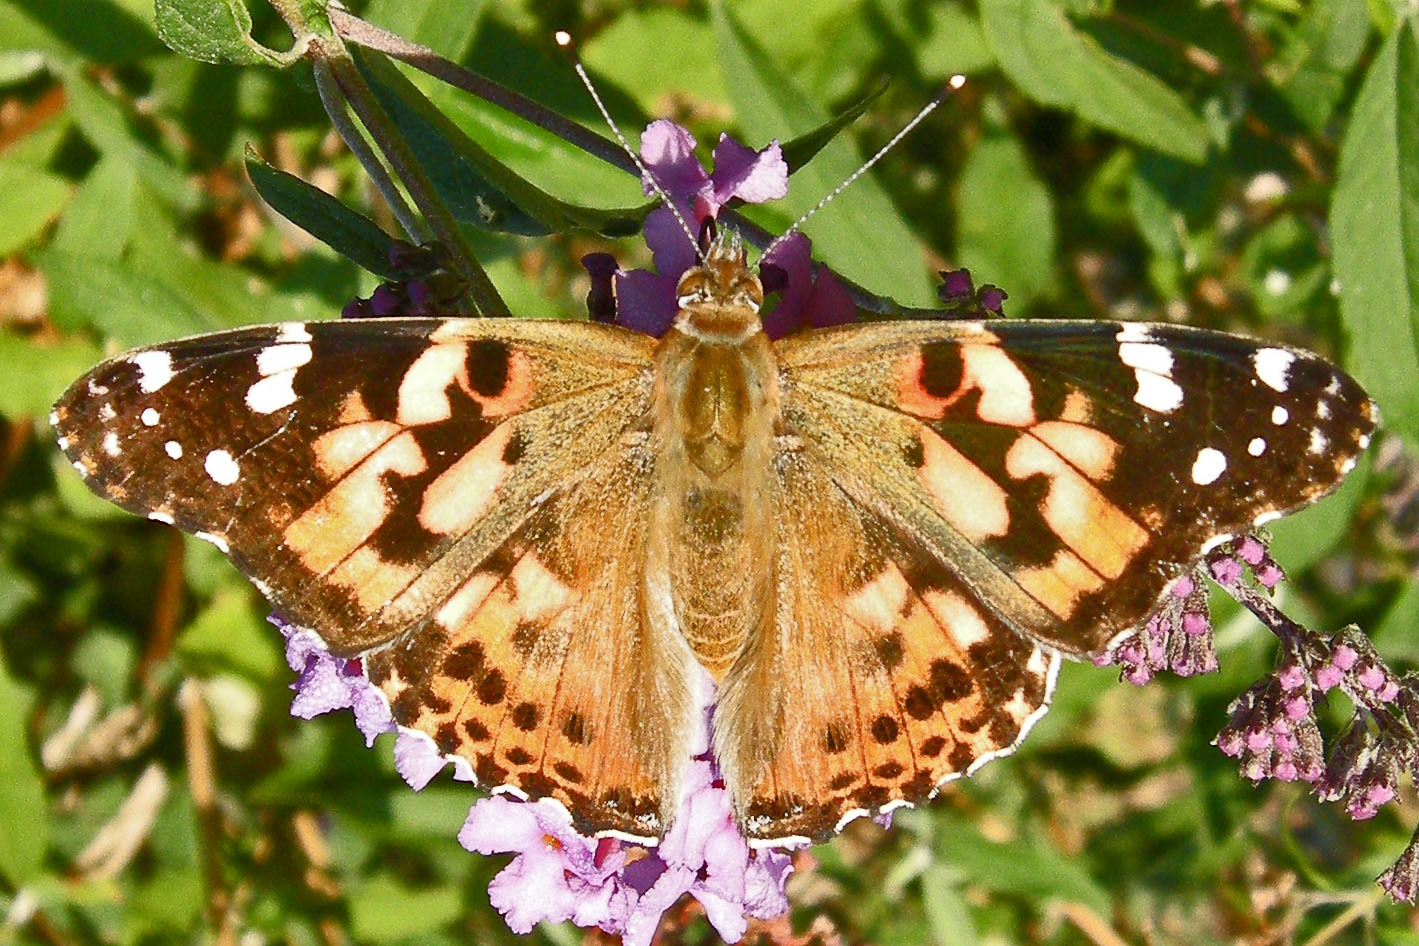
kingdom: Animalia
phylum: Arthropoda
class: Insecta
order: Lepidoptera
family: Nymphalidae
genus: Vanessa
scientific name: Vanessa cardui
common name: Painted lady
